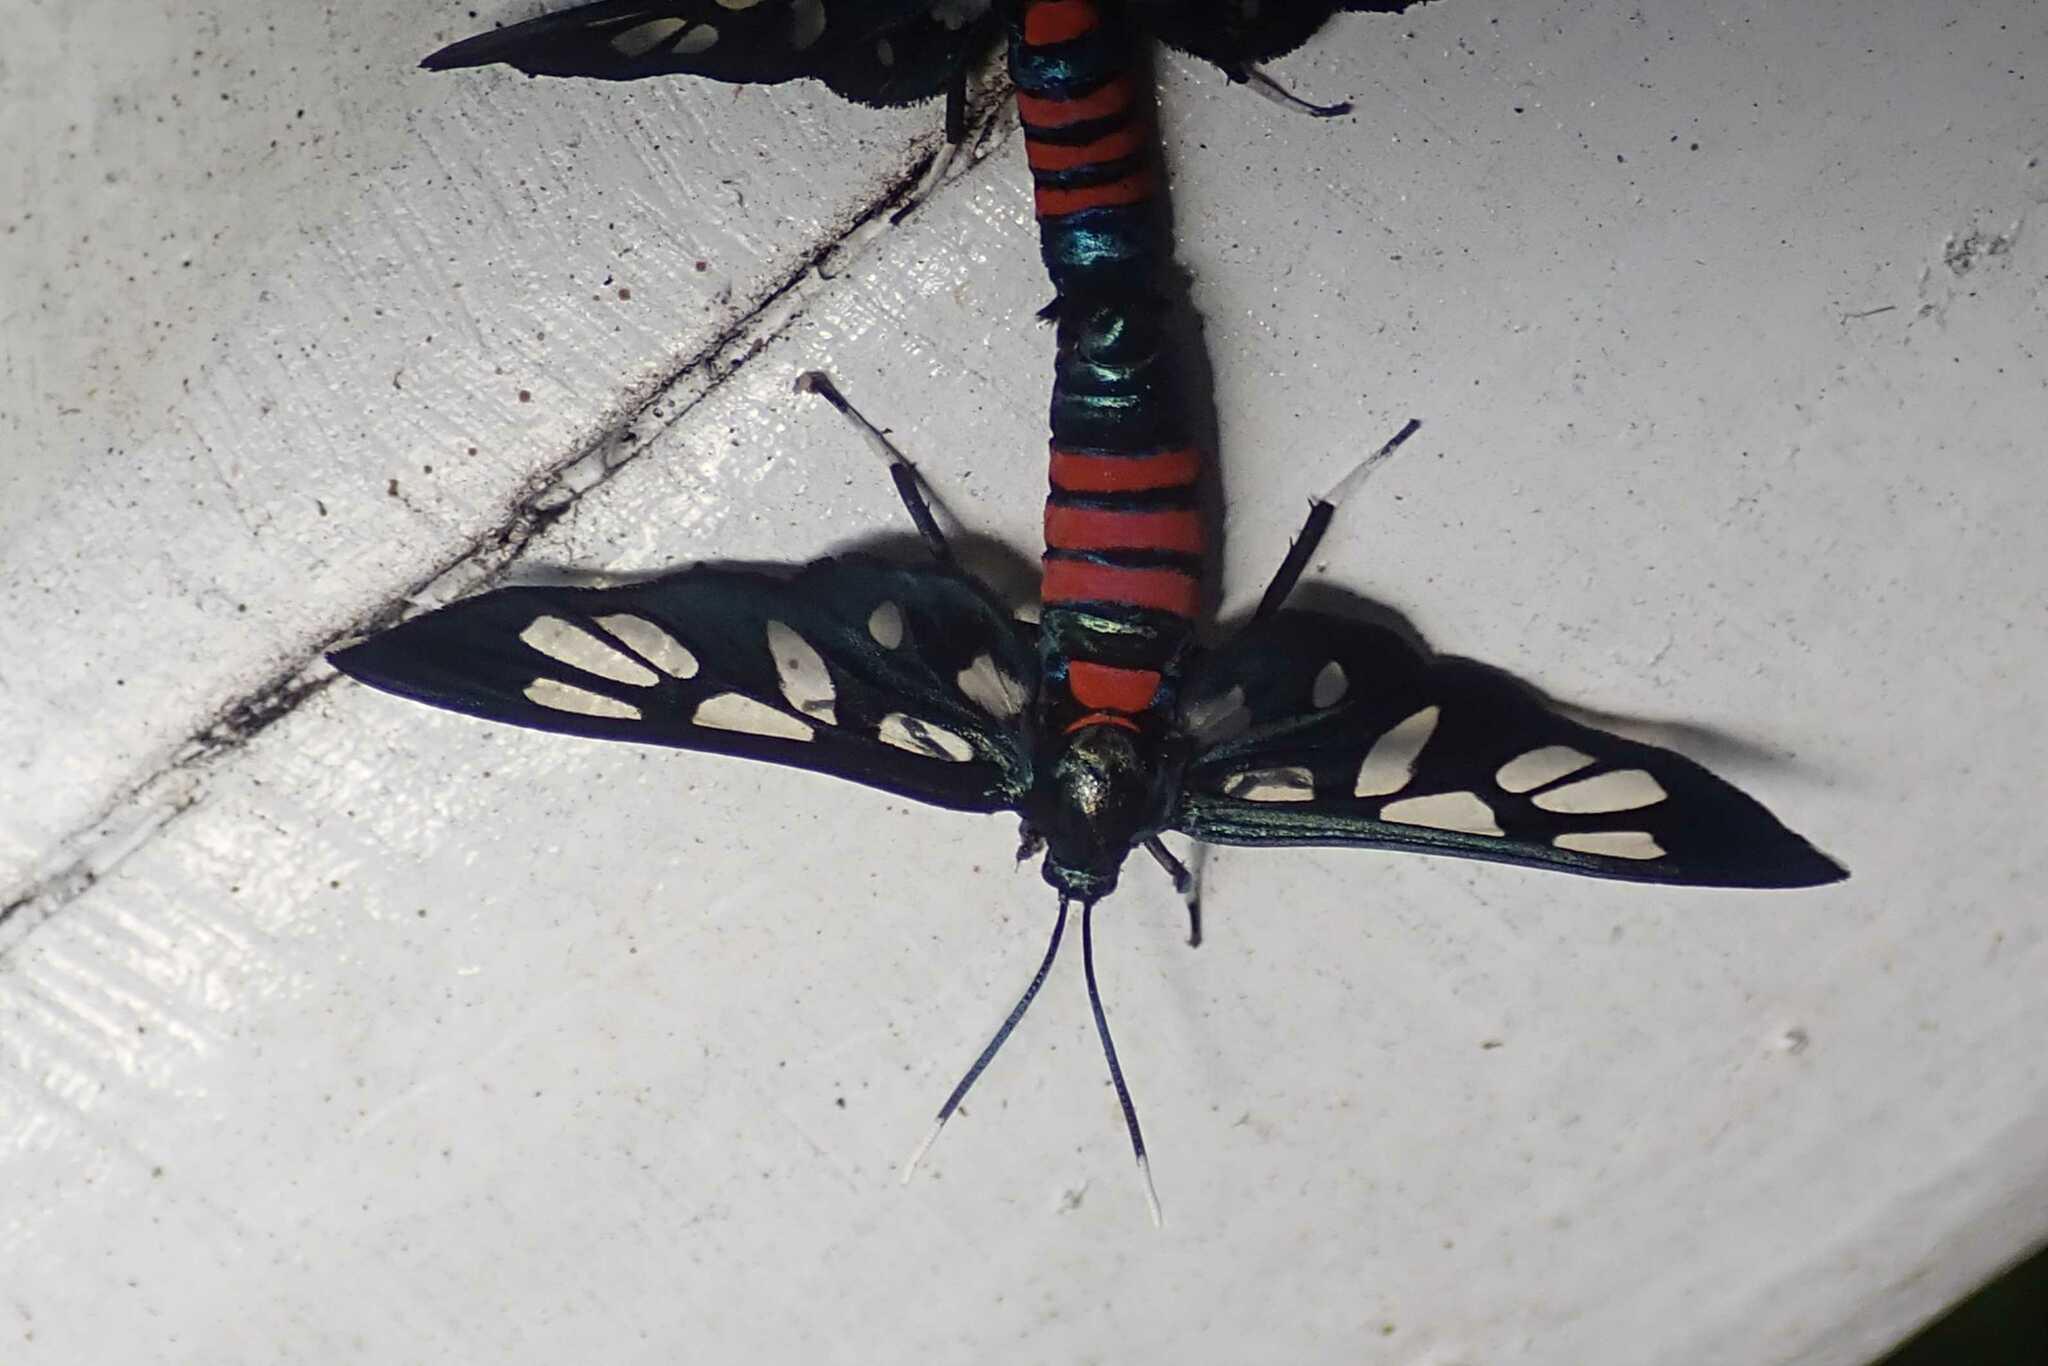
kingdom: Animalia
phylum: Arthropoda
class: Insecta
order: Lepidoptera
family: Erebidae
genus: Amata
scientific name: Amata schellhorni
